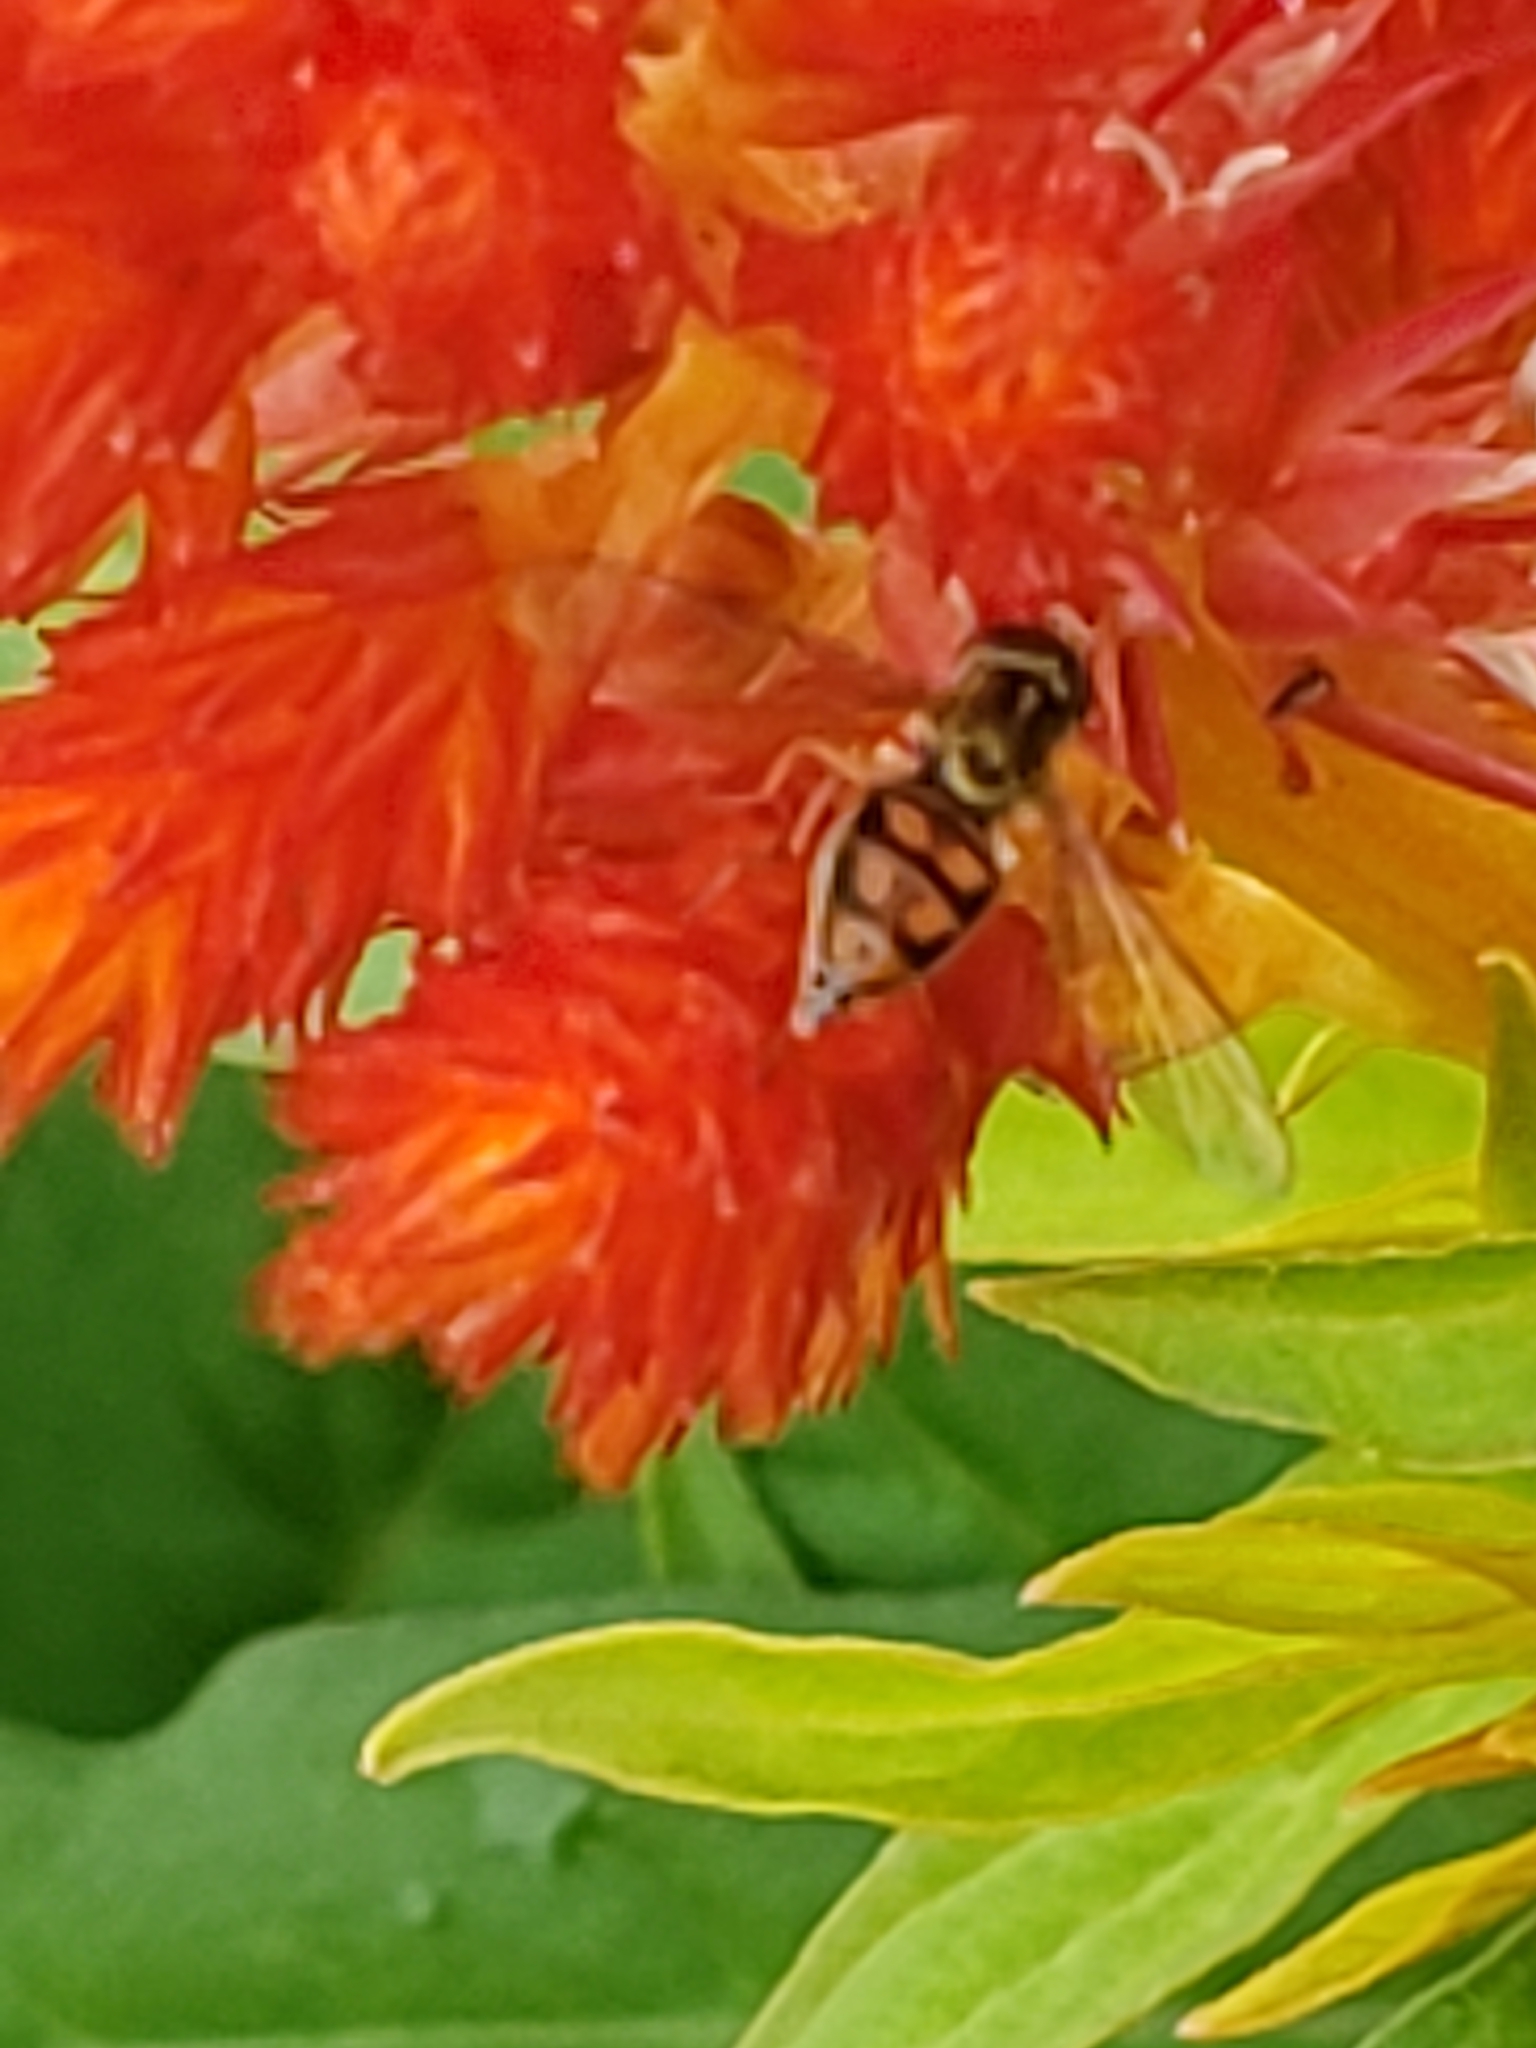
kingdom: Animalia
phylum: Arthropoda
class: Insecta
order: Diptera
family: Syrphidae
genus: Toxomerus
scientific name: Toxomerus marginatus
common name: Syrphid fly
